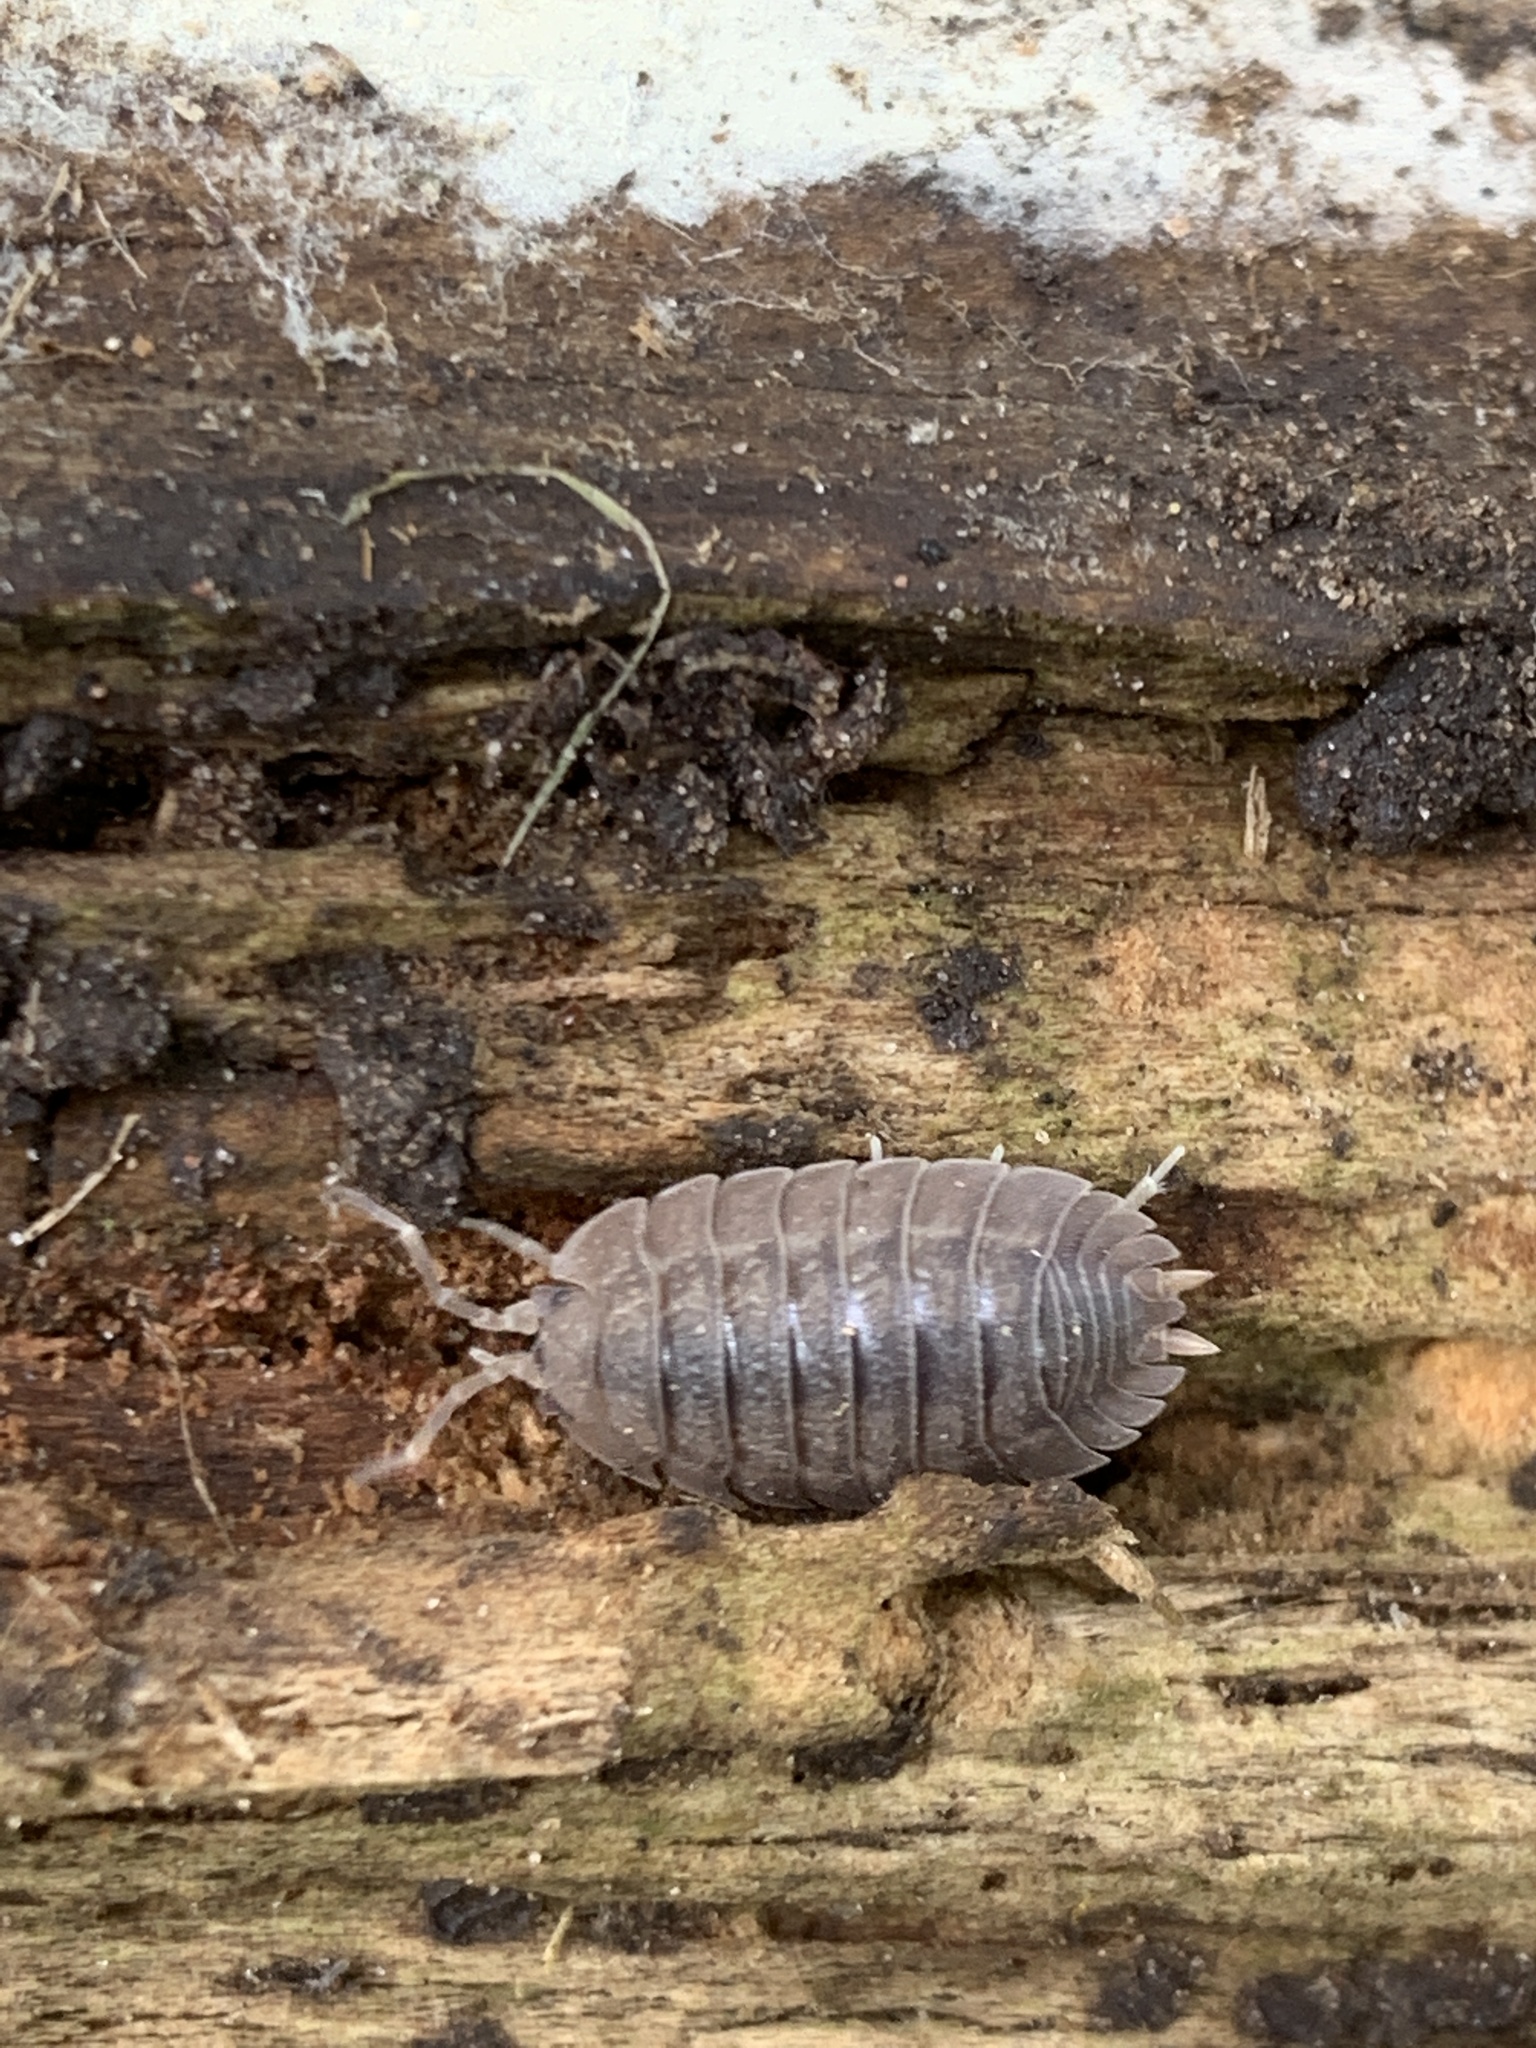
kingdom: Animalia
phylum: Arthropoda
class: Malacostraca
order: Isopoda
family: Porcellionidae
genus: Porcellio
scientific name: Porcellio dilatatus
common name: Isopod
